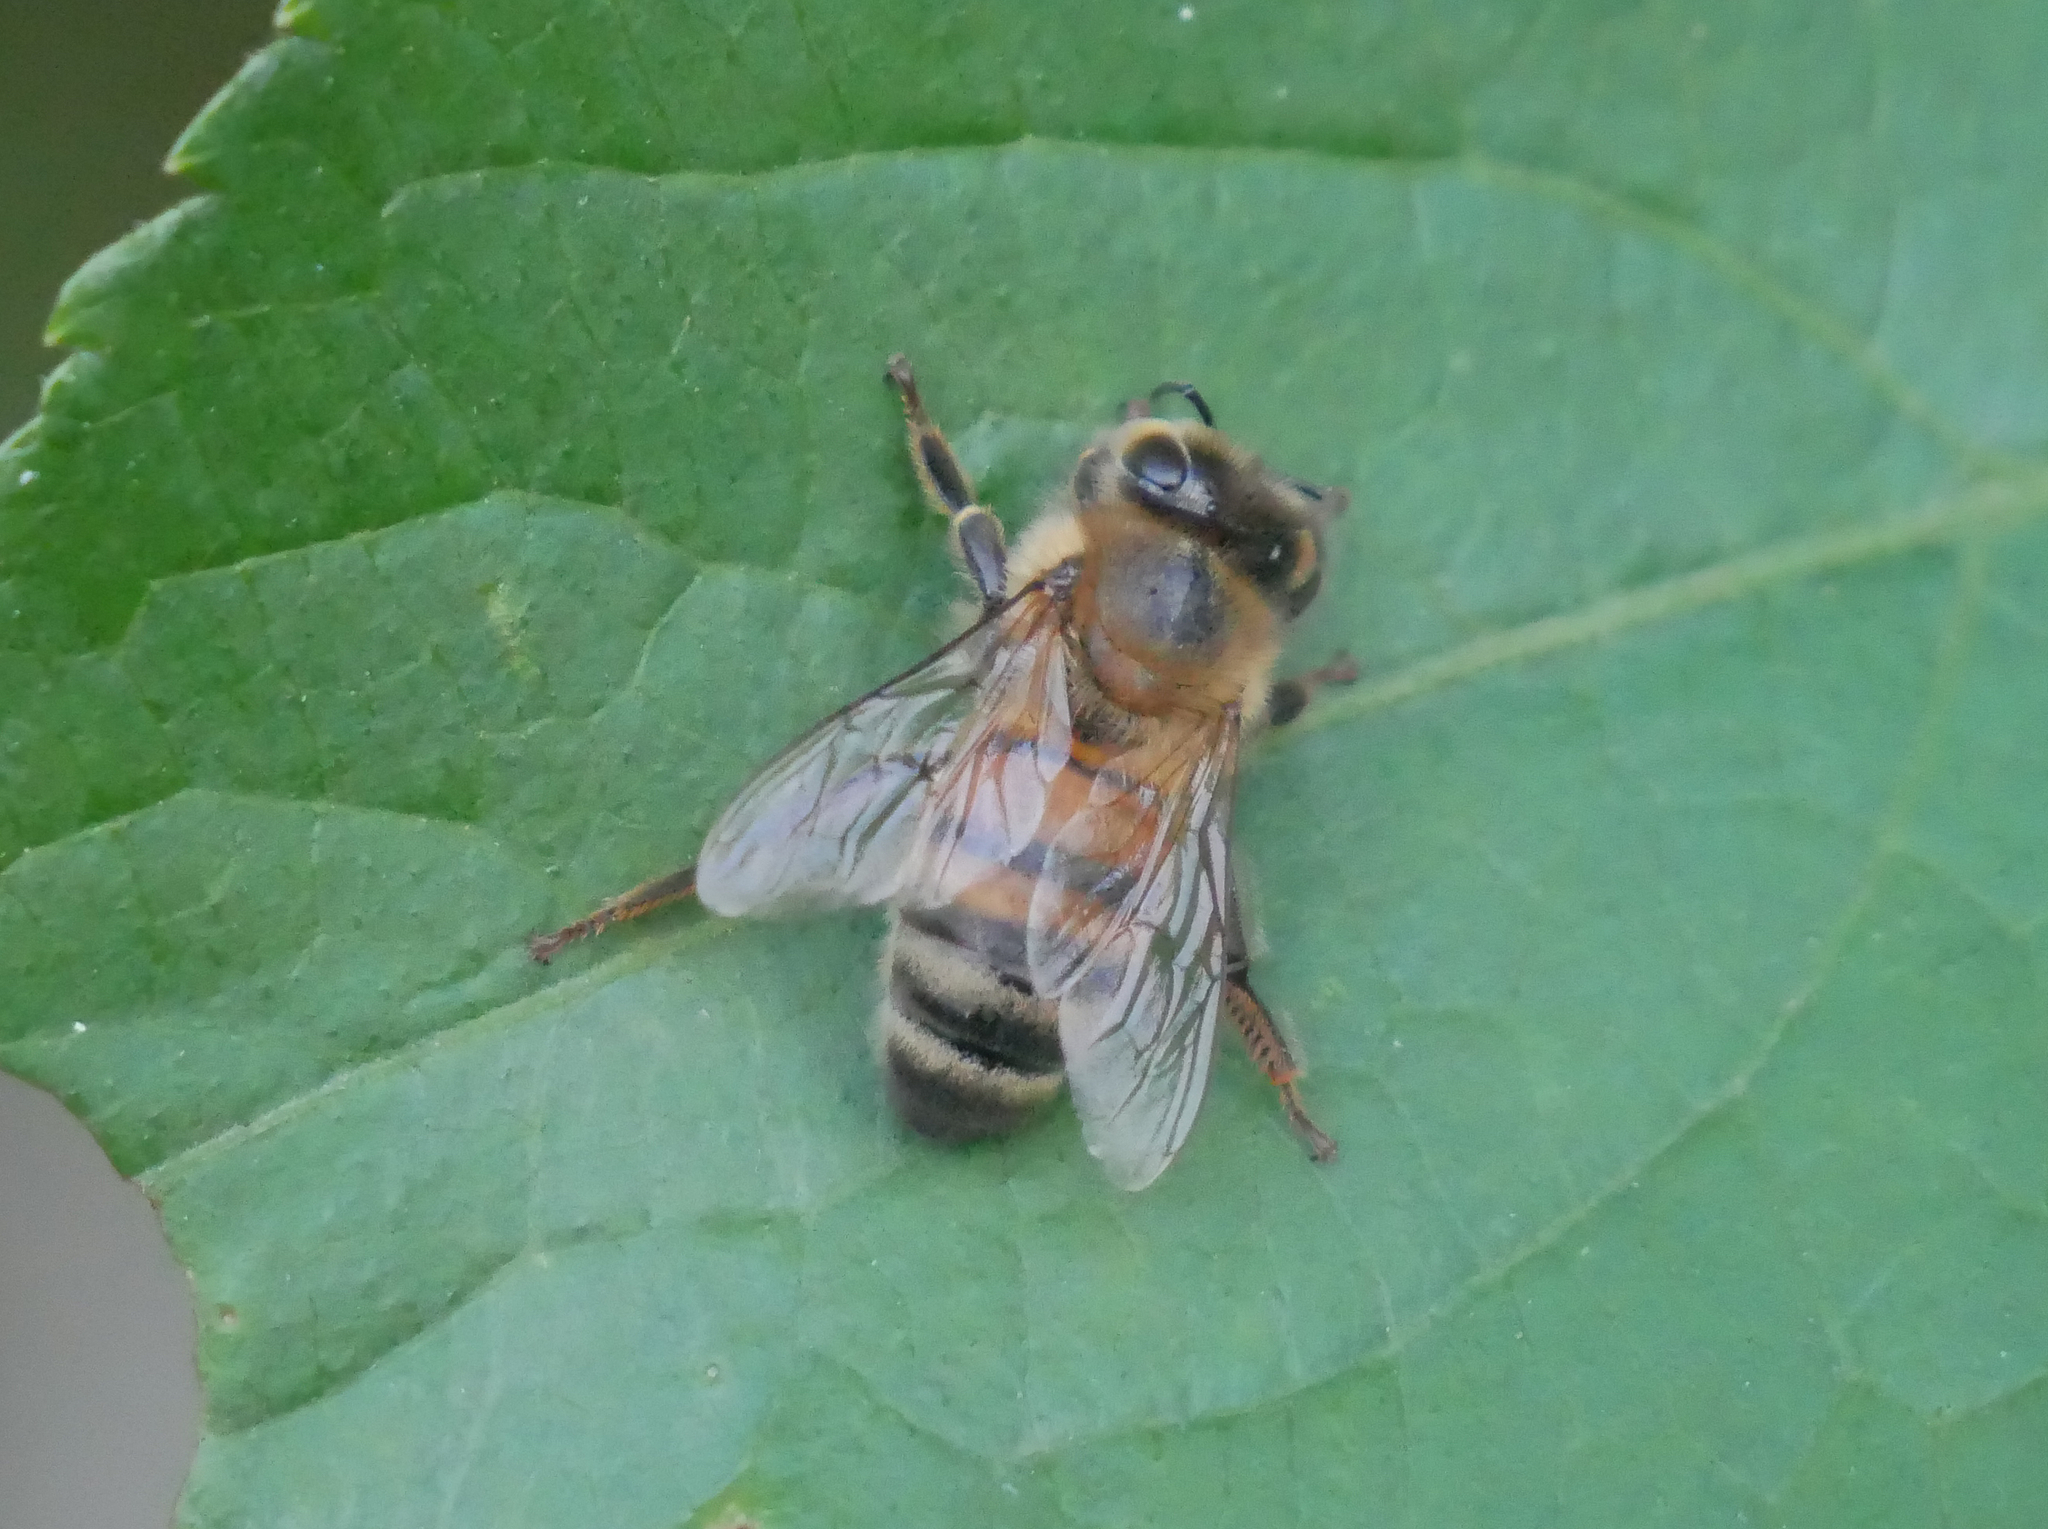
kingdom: Animalia
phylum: Arthropoda
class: Insecta
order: Hymenoptera
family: Apidae
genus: Apis
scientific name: Apis mellifera
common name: Honey bee
